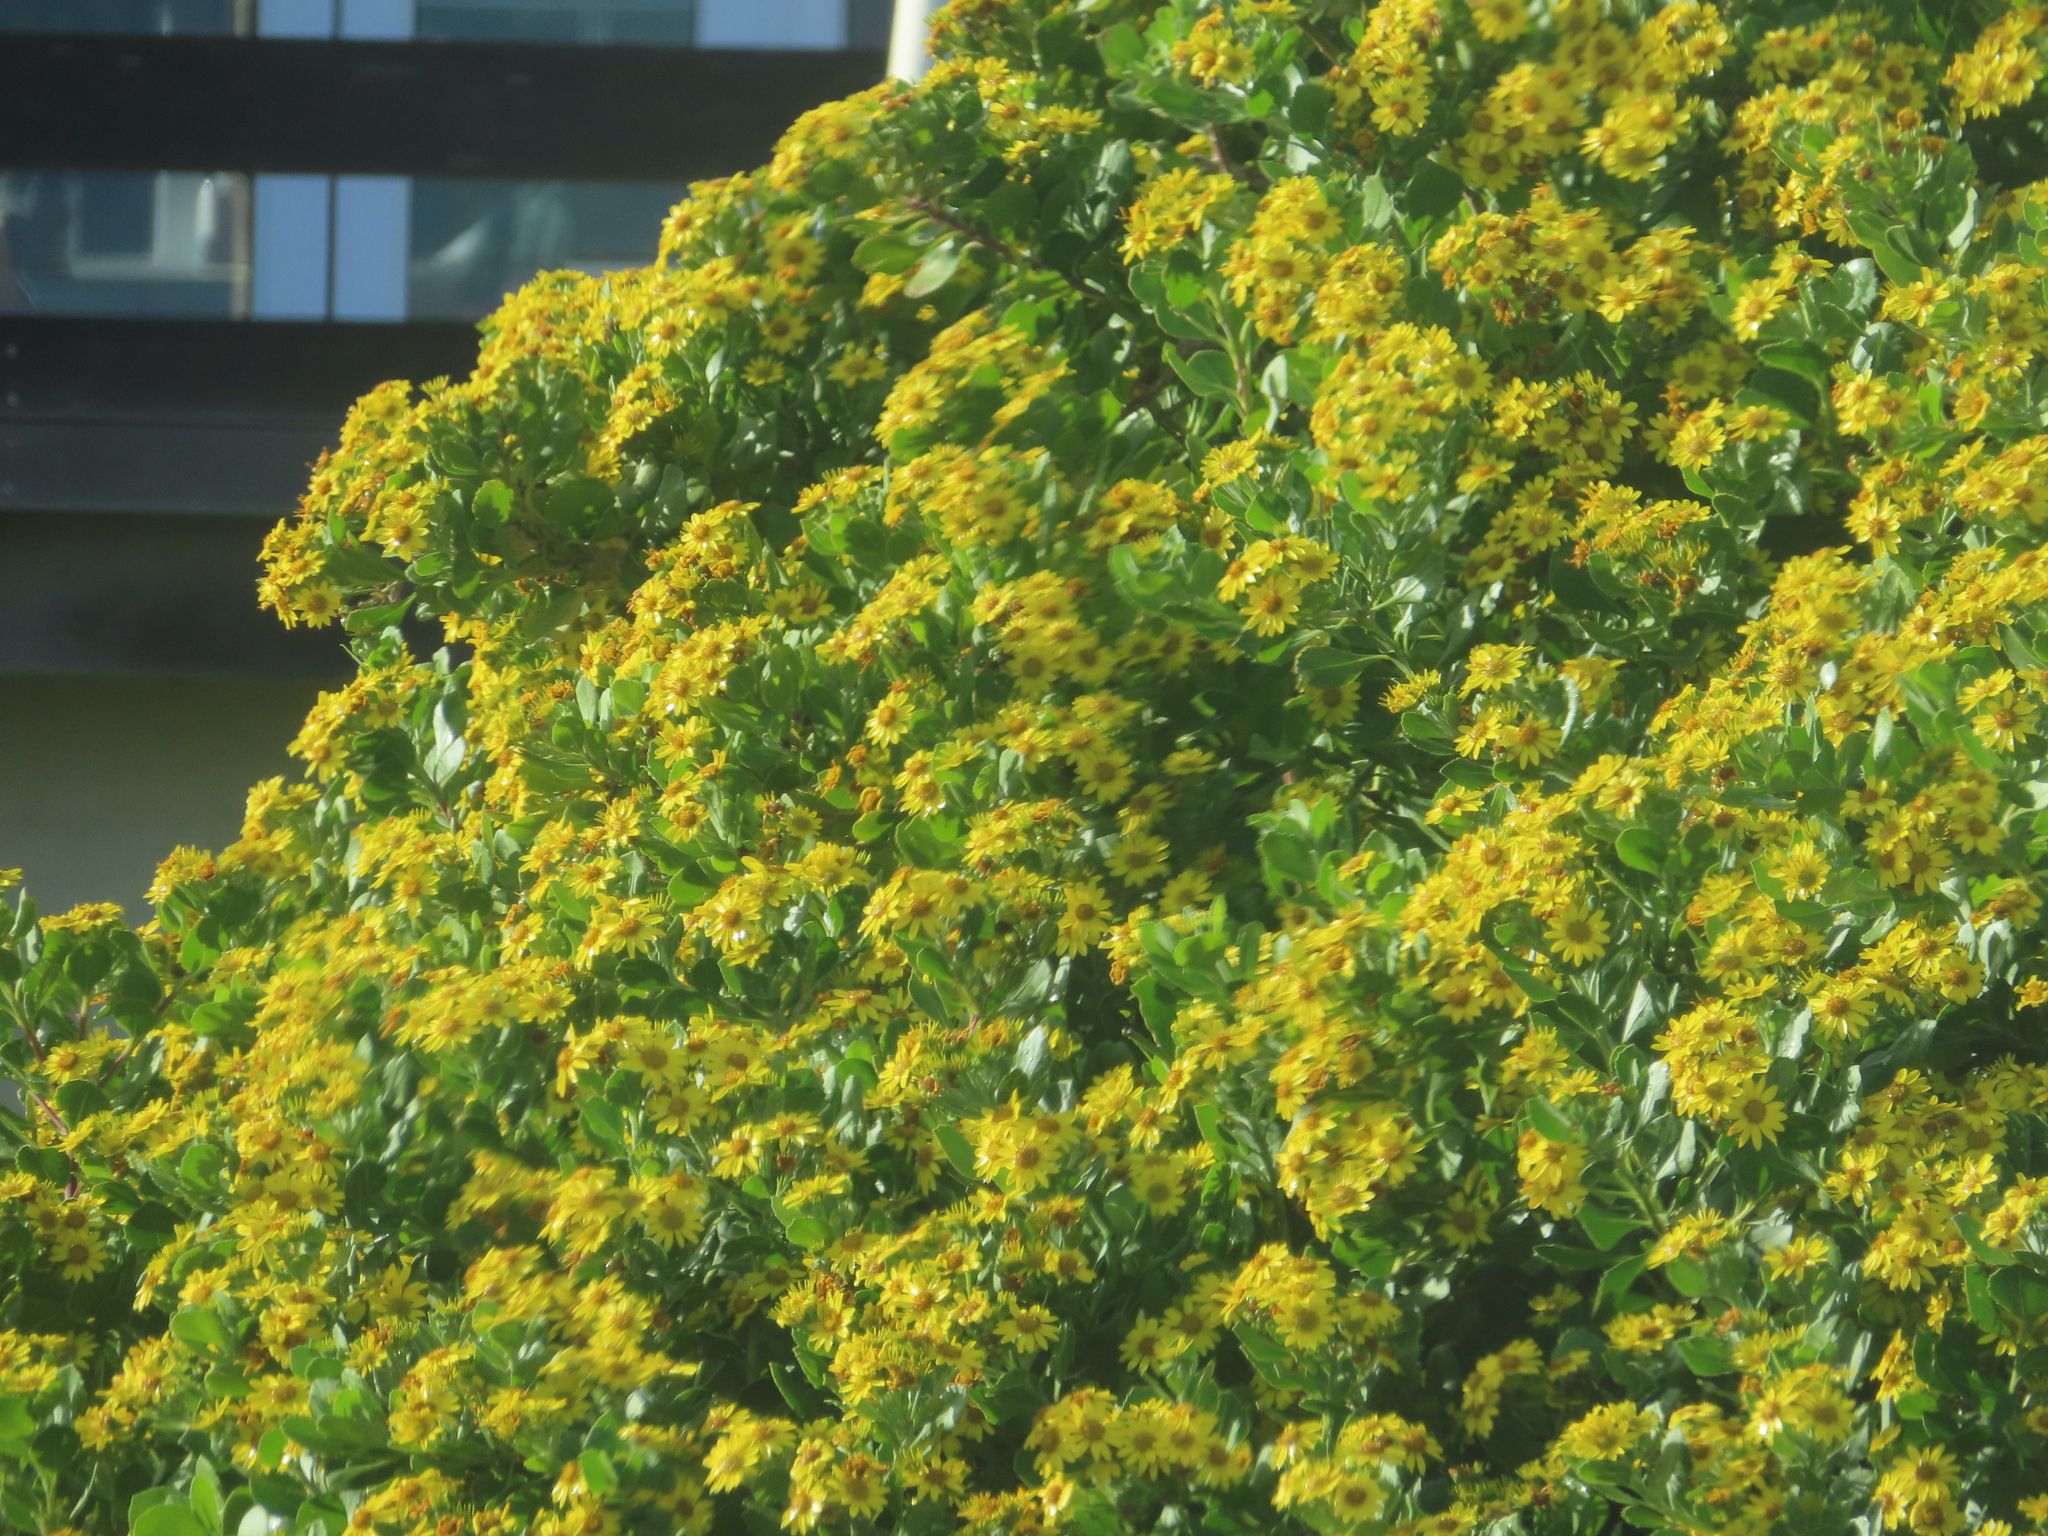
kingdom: Plantae
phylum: Tracheophyta
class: Magnoliopsida
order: Asterales
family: Asteraceae
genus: Osteospermum
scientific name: Osteospermum moniliferum
